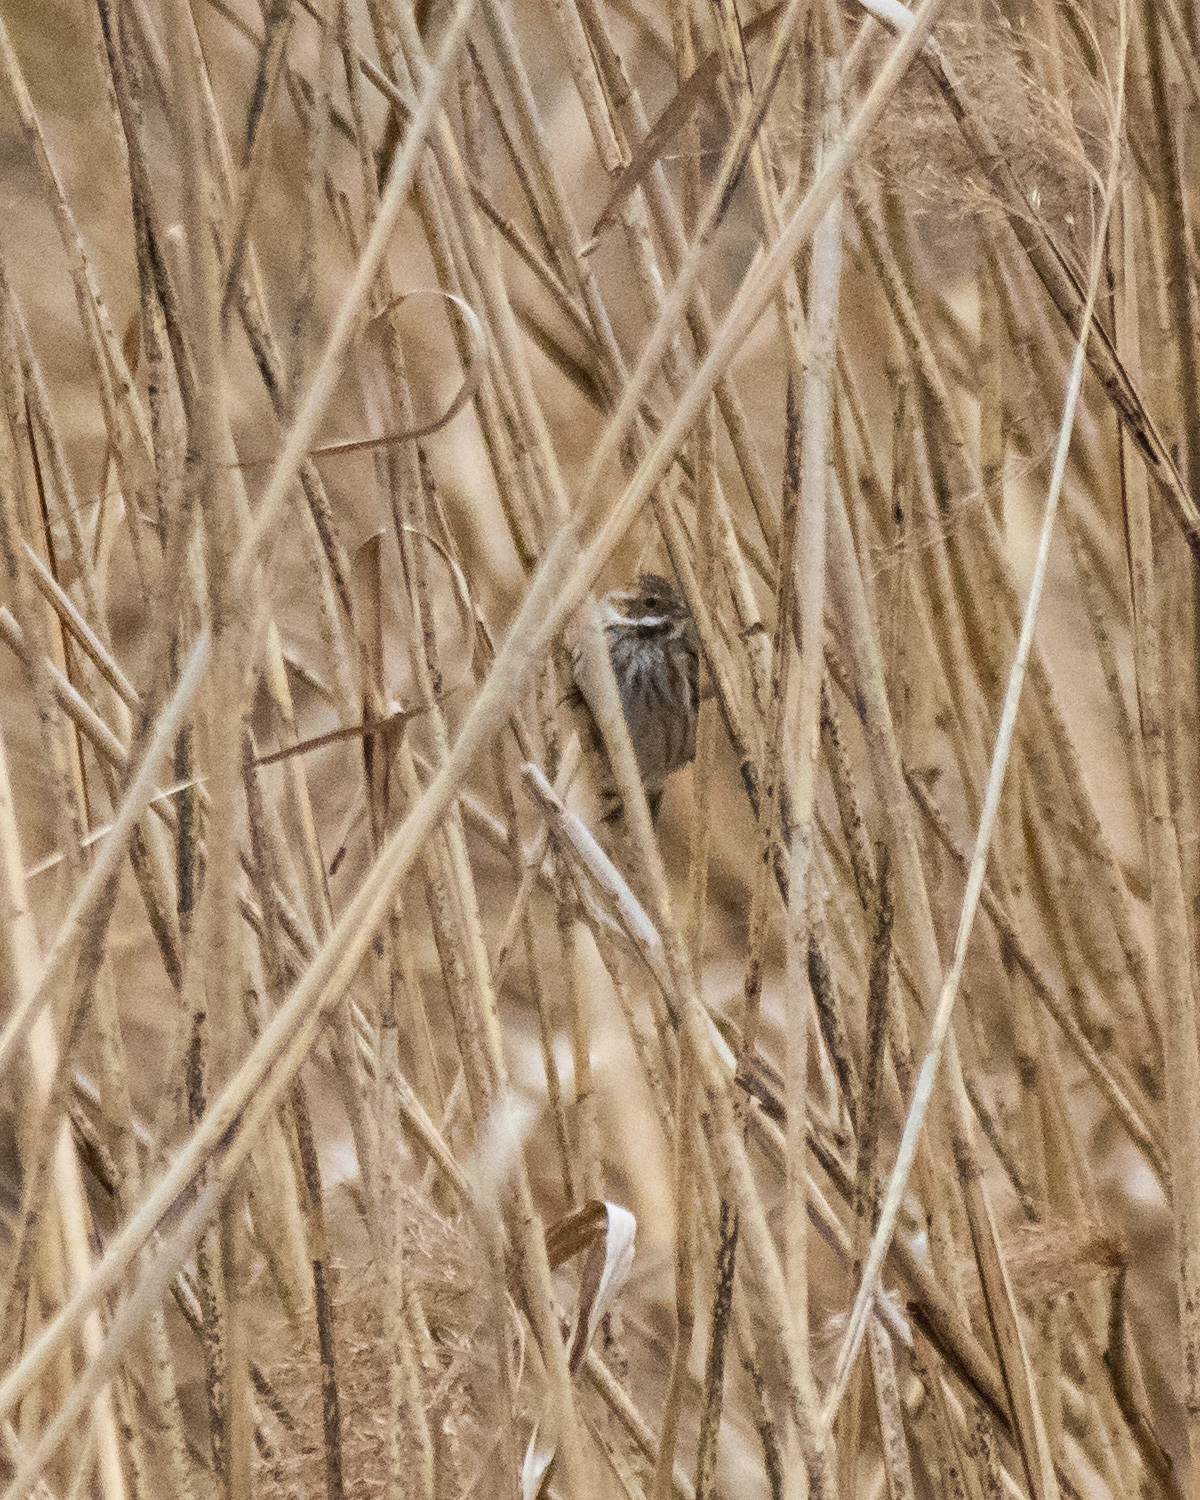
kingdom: Animalia
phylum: Chordata
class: Aves
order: Passeriformes
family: Emberizidae
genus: Emberiza
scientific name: Emberiza schoeniclus
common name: Reed bunting
